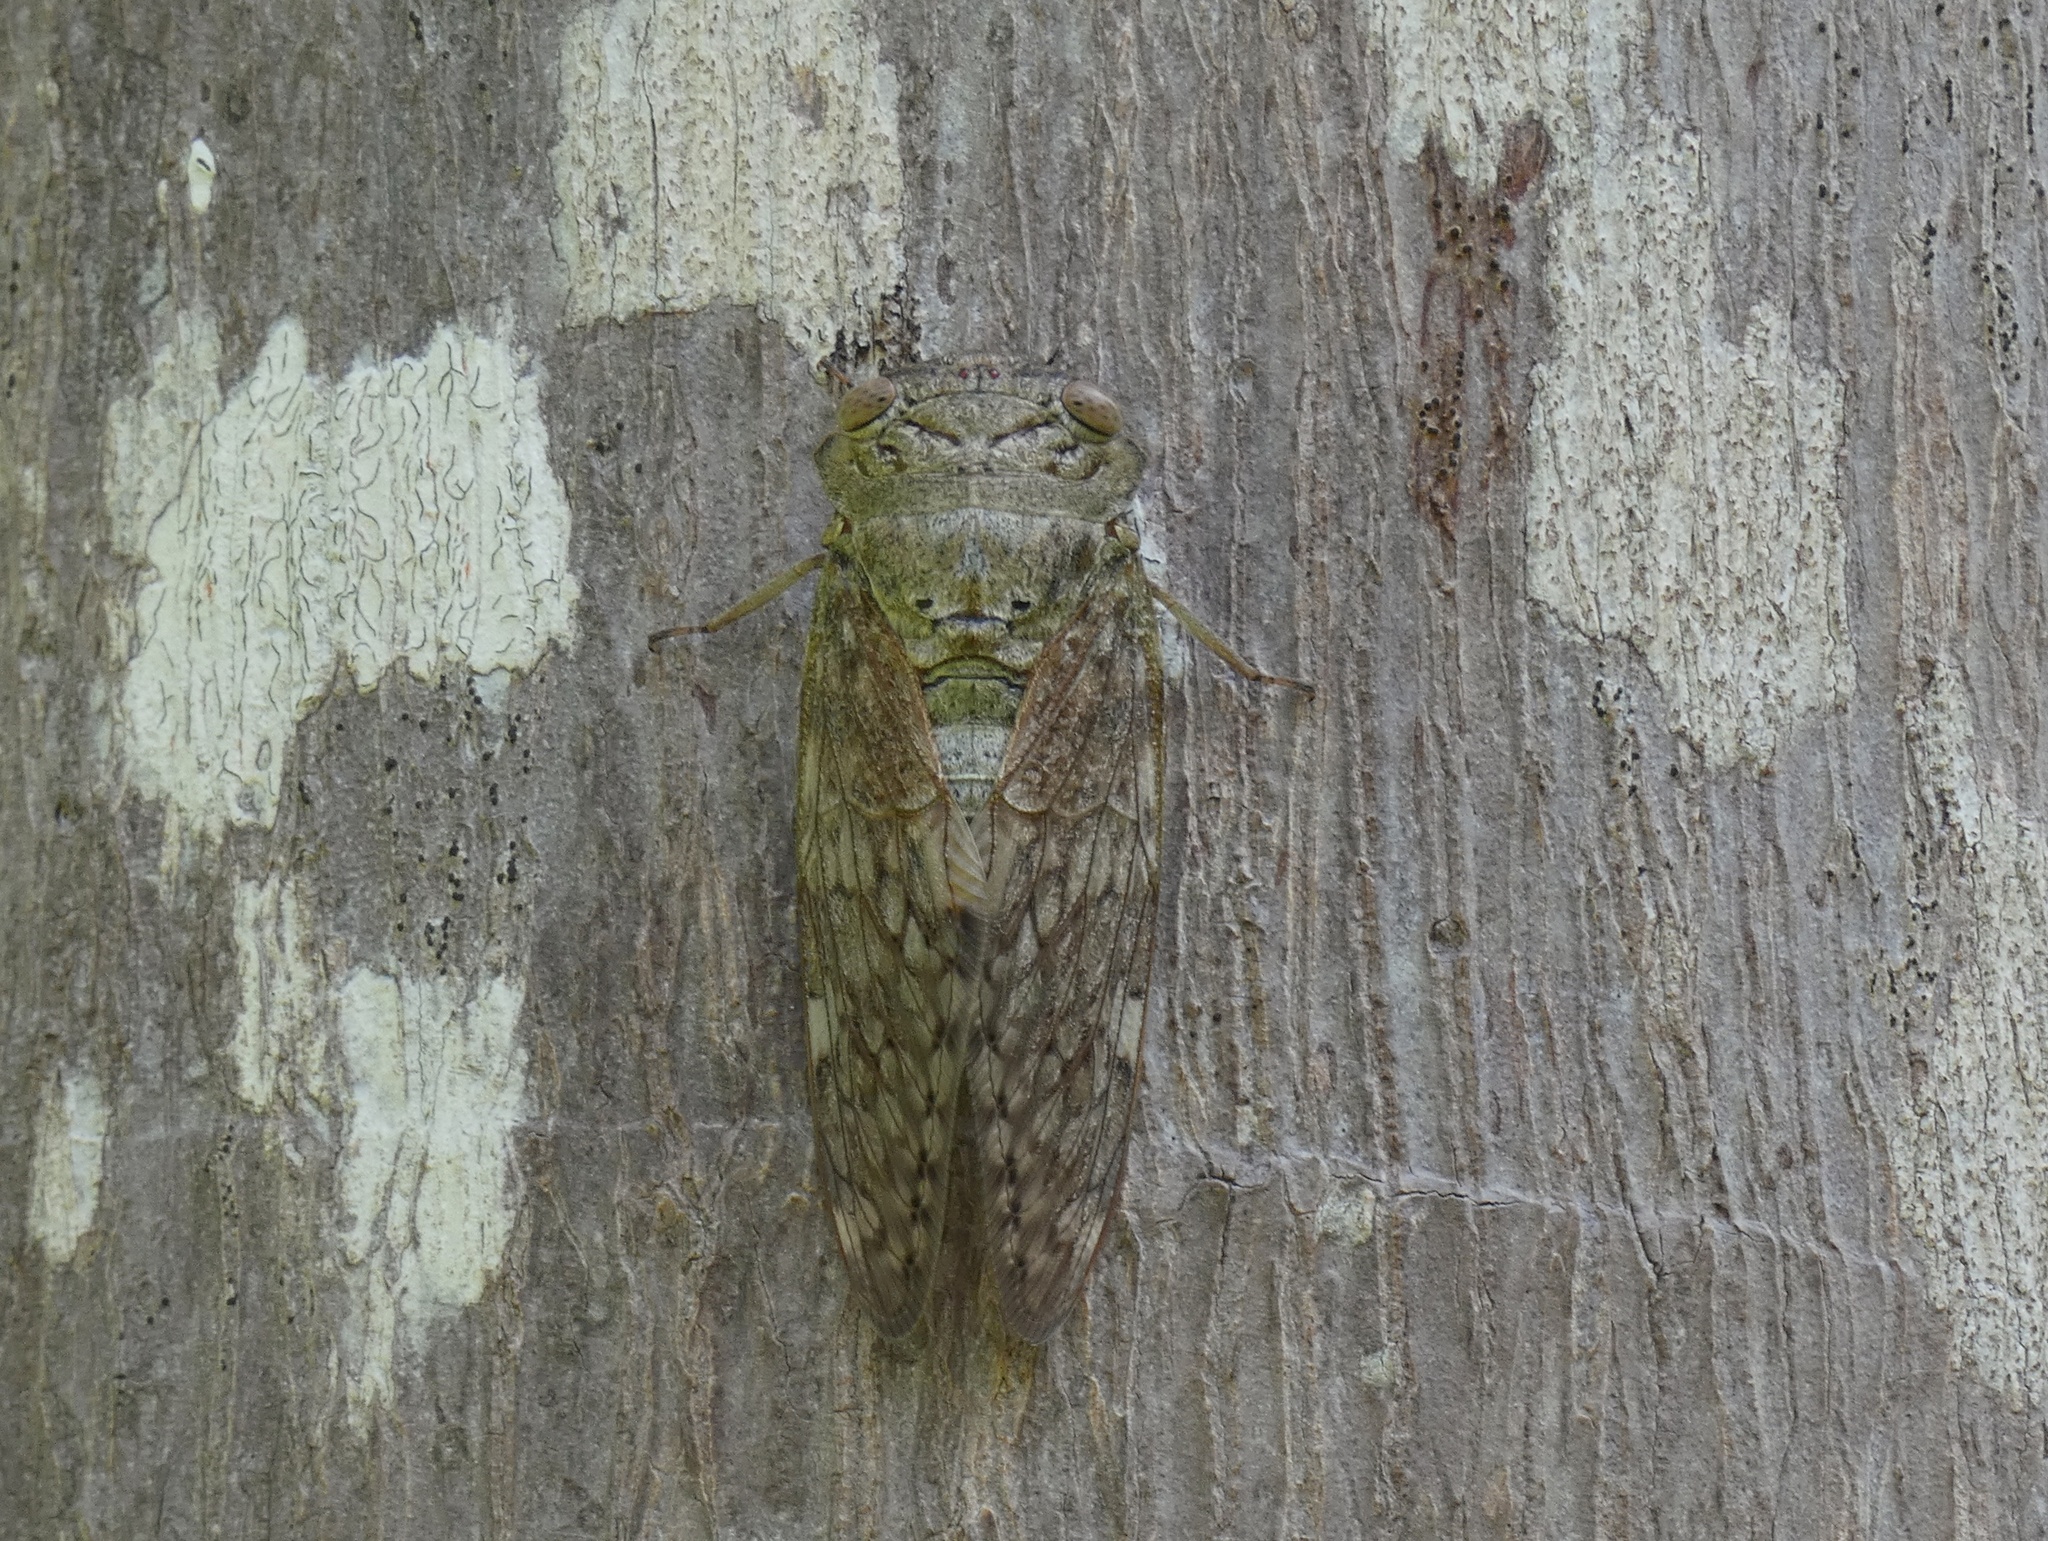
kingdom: Animalia
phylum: Arthropoda
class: Insecta
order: Hemiptera
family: Cicadidae
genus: Platypleura
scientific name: Platypleura lourensi
